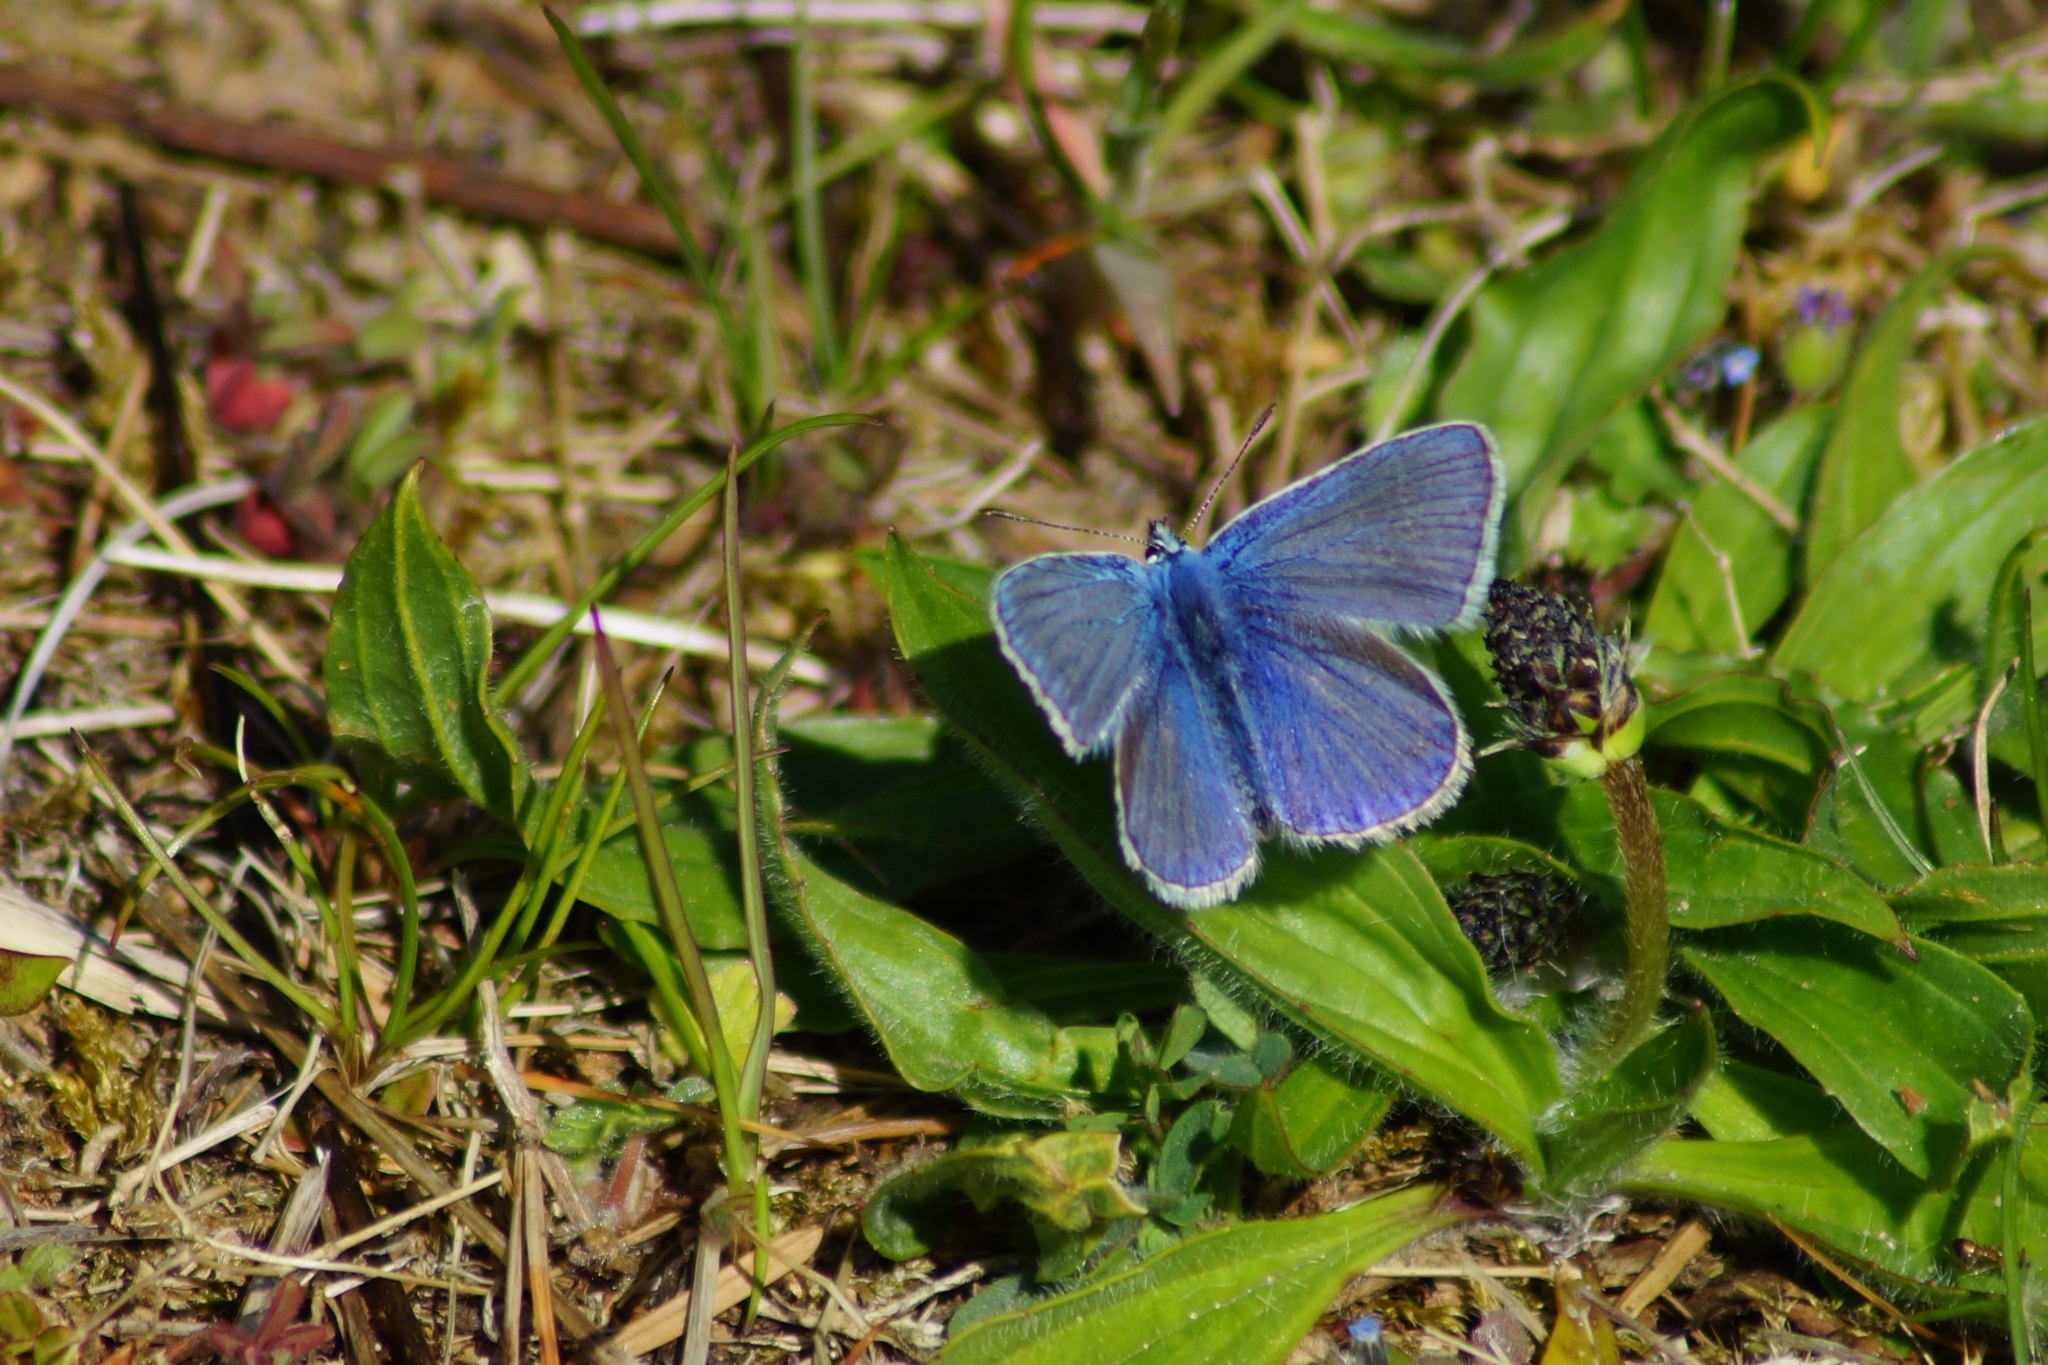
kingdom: Animalia
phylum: Arthropoda
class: Insecta
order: Lepidoptera
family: Lycaenidae
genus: Polyommatus
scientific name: Polyommatus icarus
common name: Common blue
